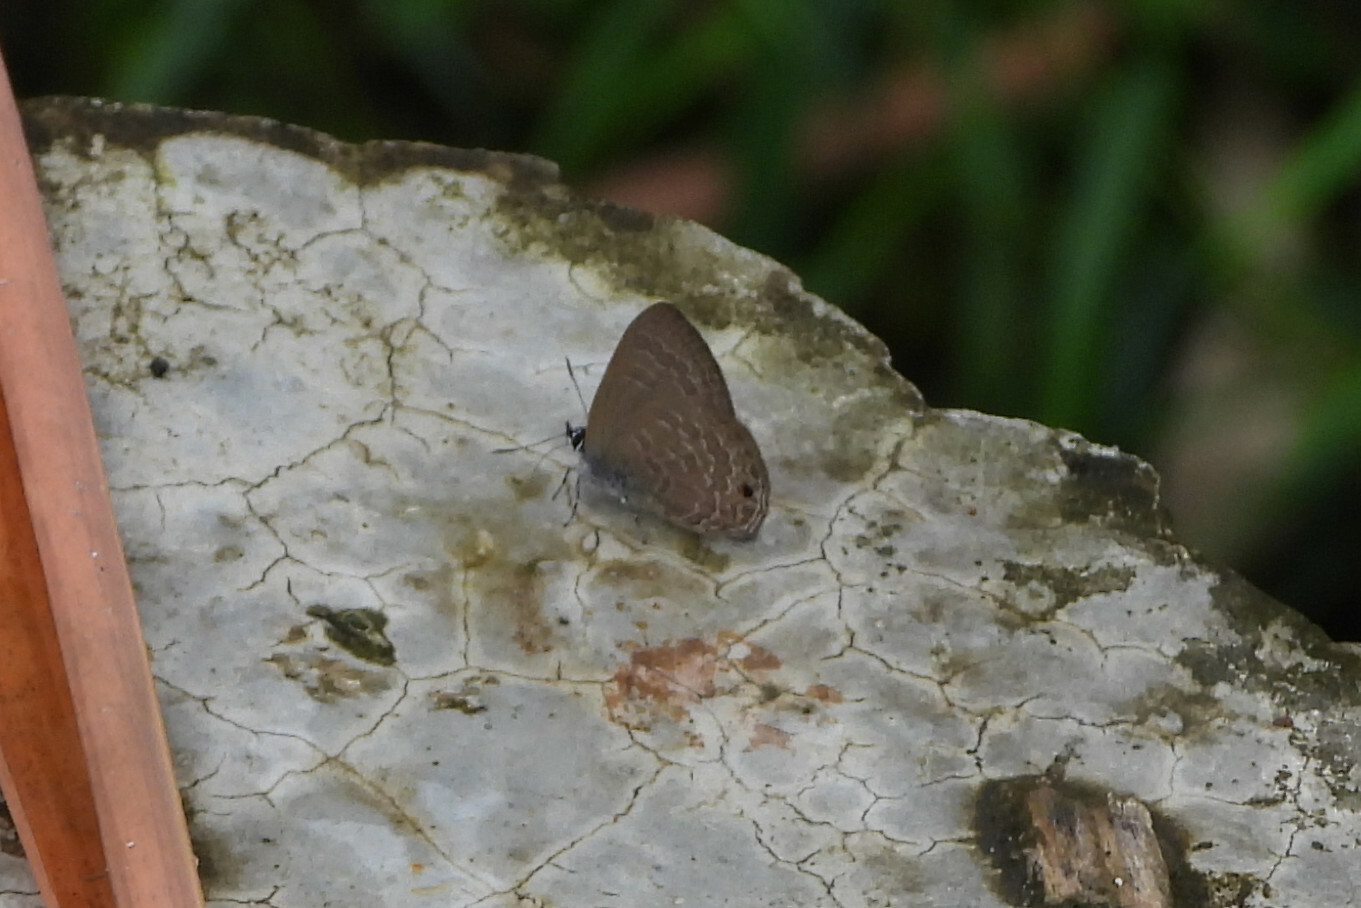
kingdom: Animalia
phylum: Arthropoda
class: Insecta
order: Lepidoptera
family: Lycaenidae
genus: Anthene
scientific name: Anthene emolus
